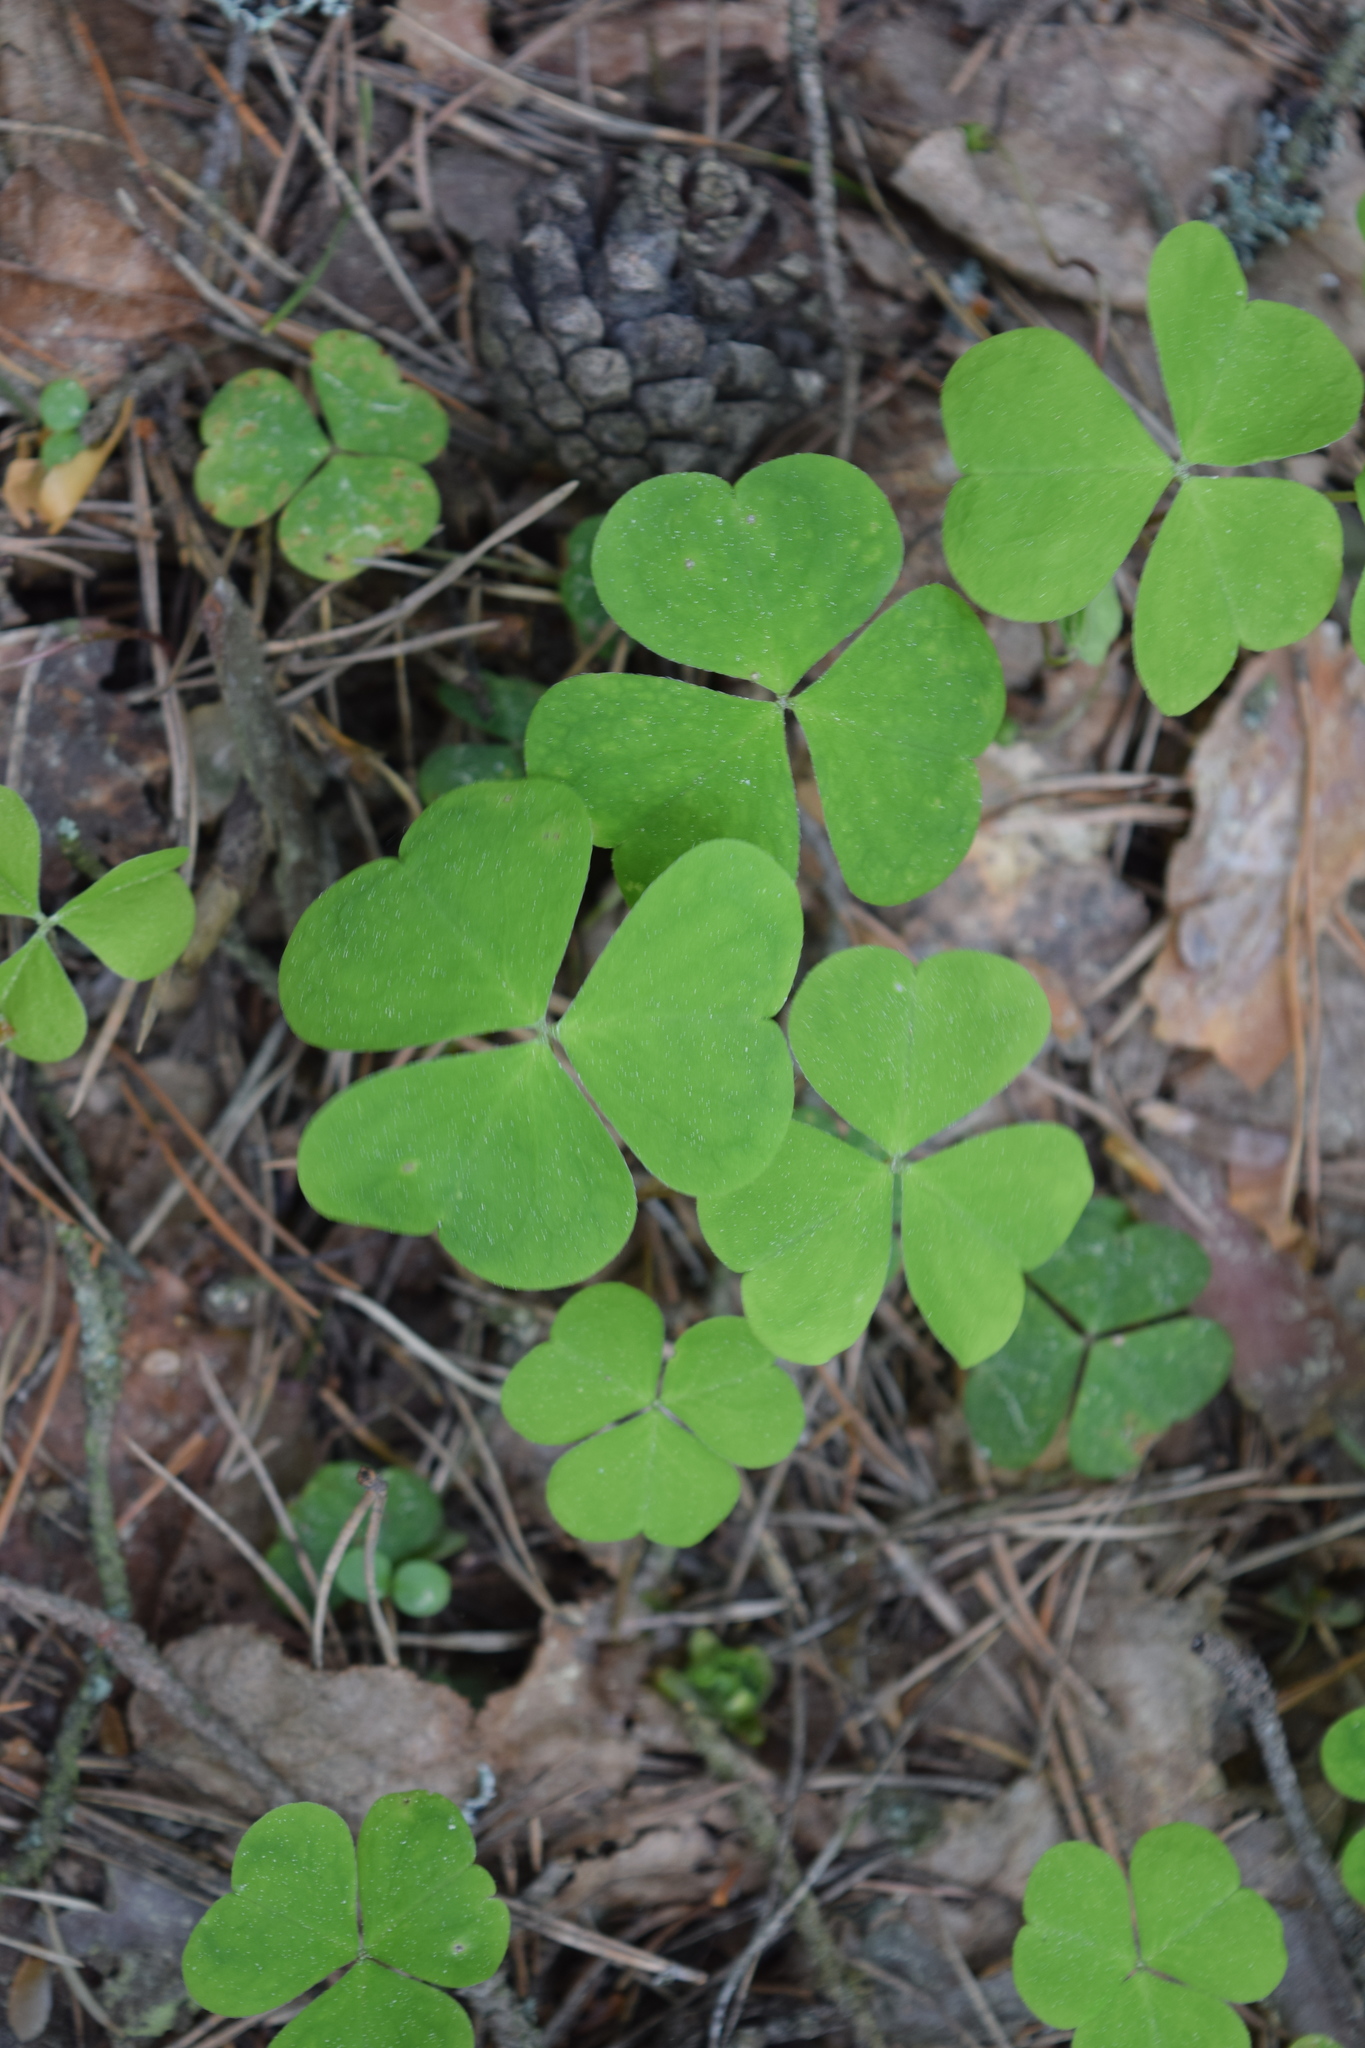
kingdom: Plantae
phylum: Tracheophyta
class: Magnoliopsida
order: Oxalidales
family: Oxalidaceae
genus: Oxalis
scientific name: Oxalis acetosella
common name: Wood-sorrel
